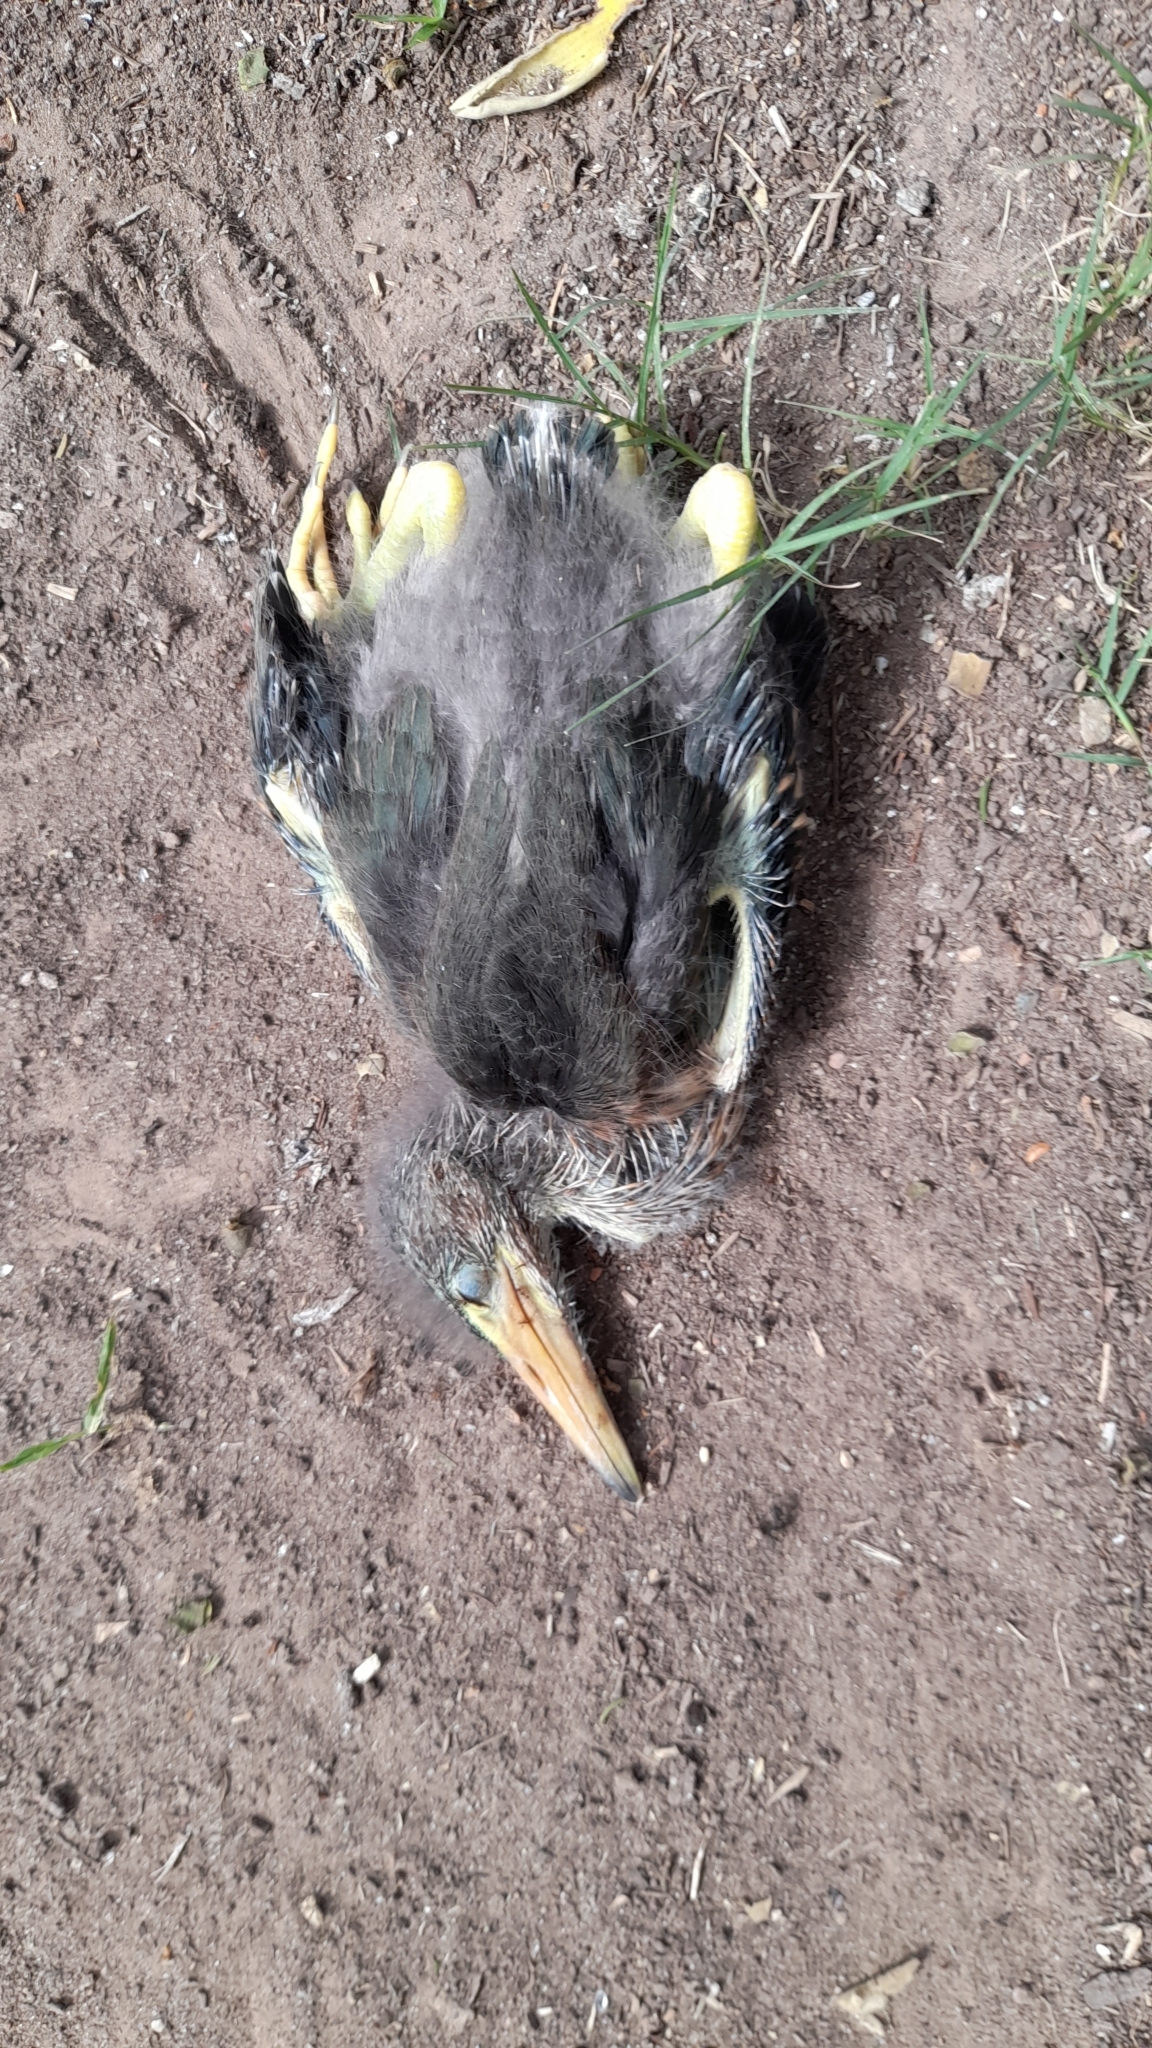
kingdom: Animalia
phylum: Chordata
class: Aves
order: Pelecaniformes
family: Ardeidae
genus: Butorides
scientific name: Butorides striata
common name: Striated heron
